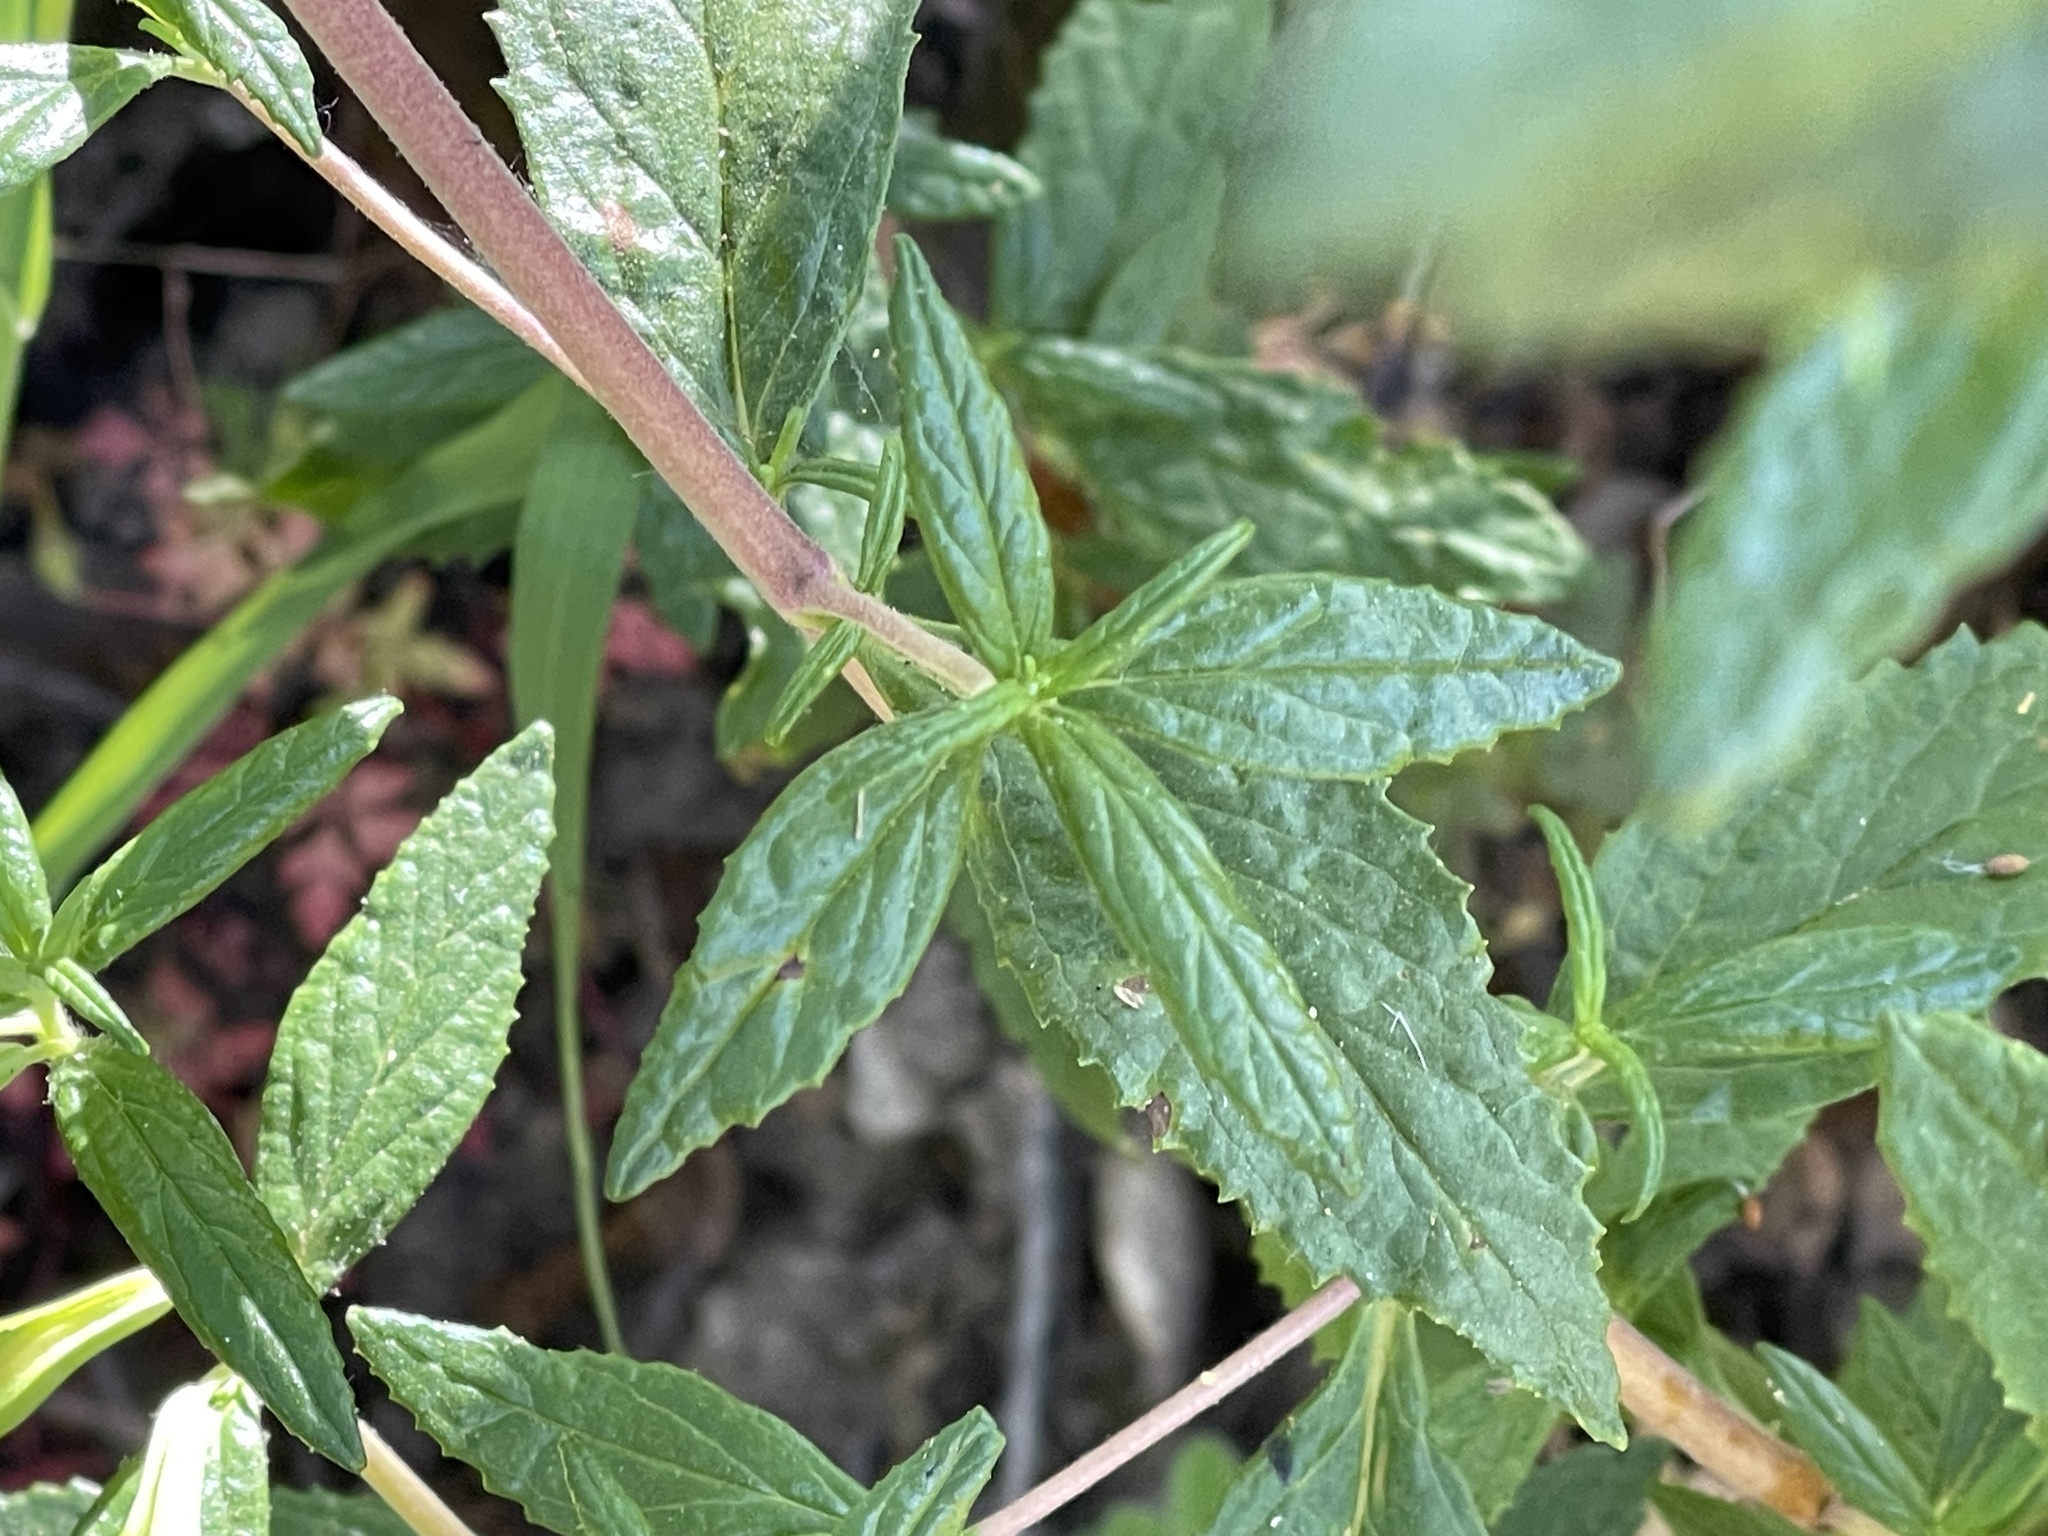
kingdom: Plantae
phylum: Tracheophyta
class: Magnoliopsida
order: Lamiales
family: Phrymaceae
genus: Diplacus
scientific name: Diplacus aurantiacus
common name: Bush monkey-flower
